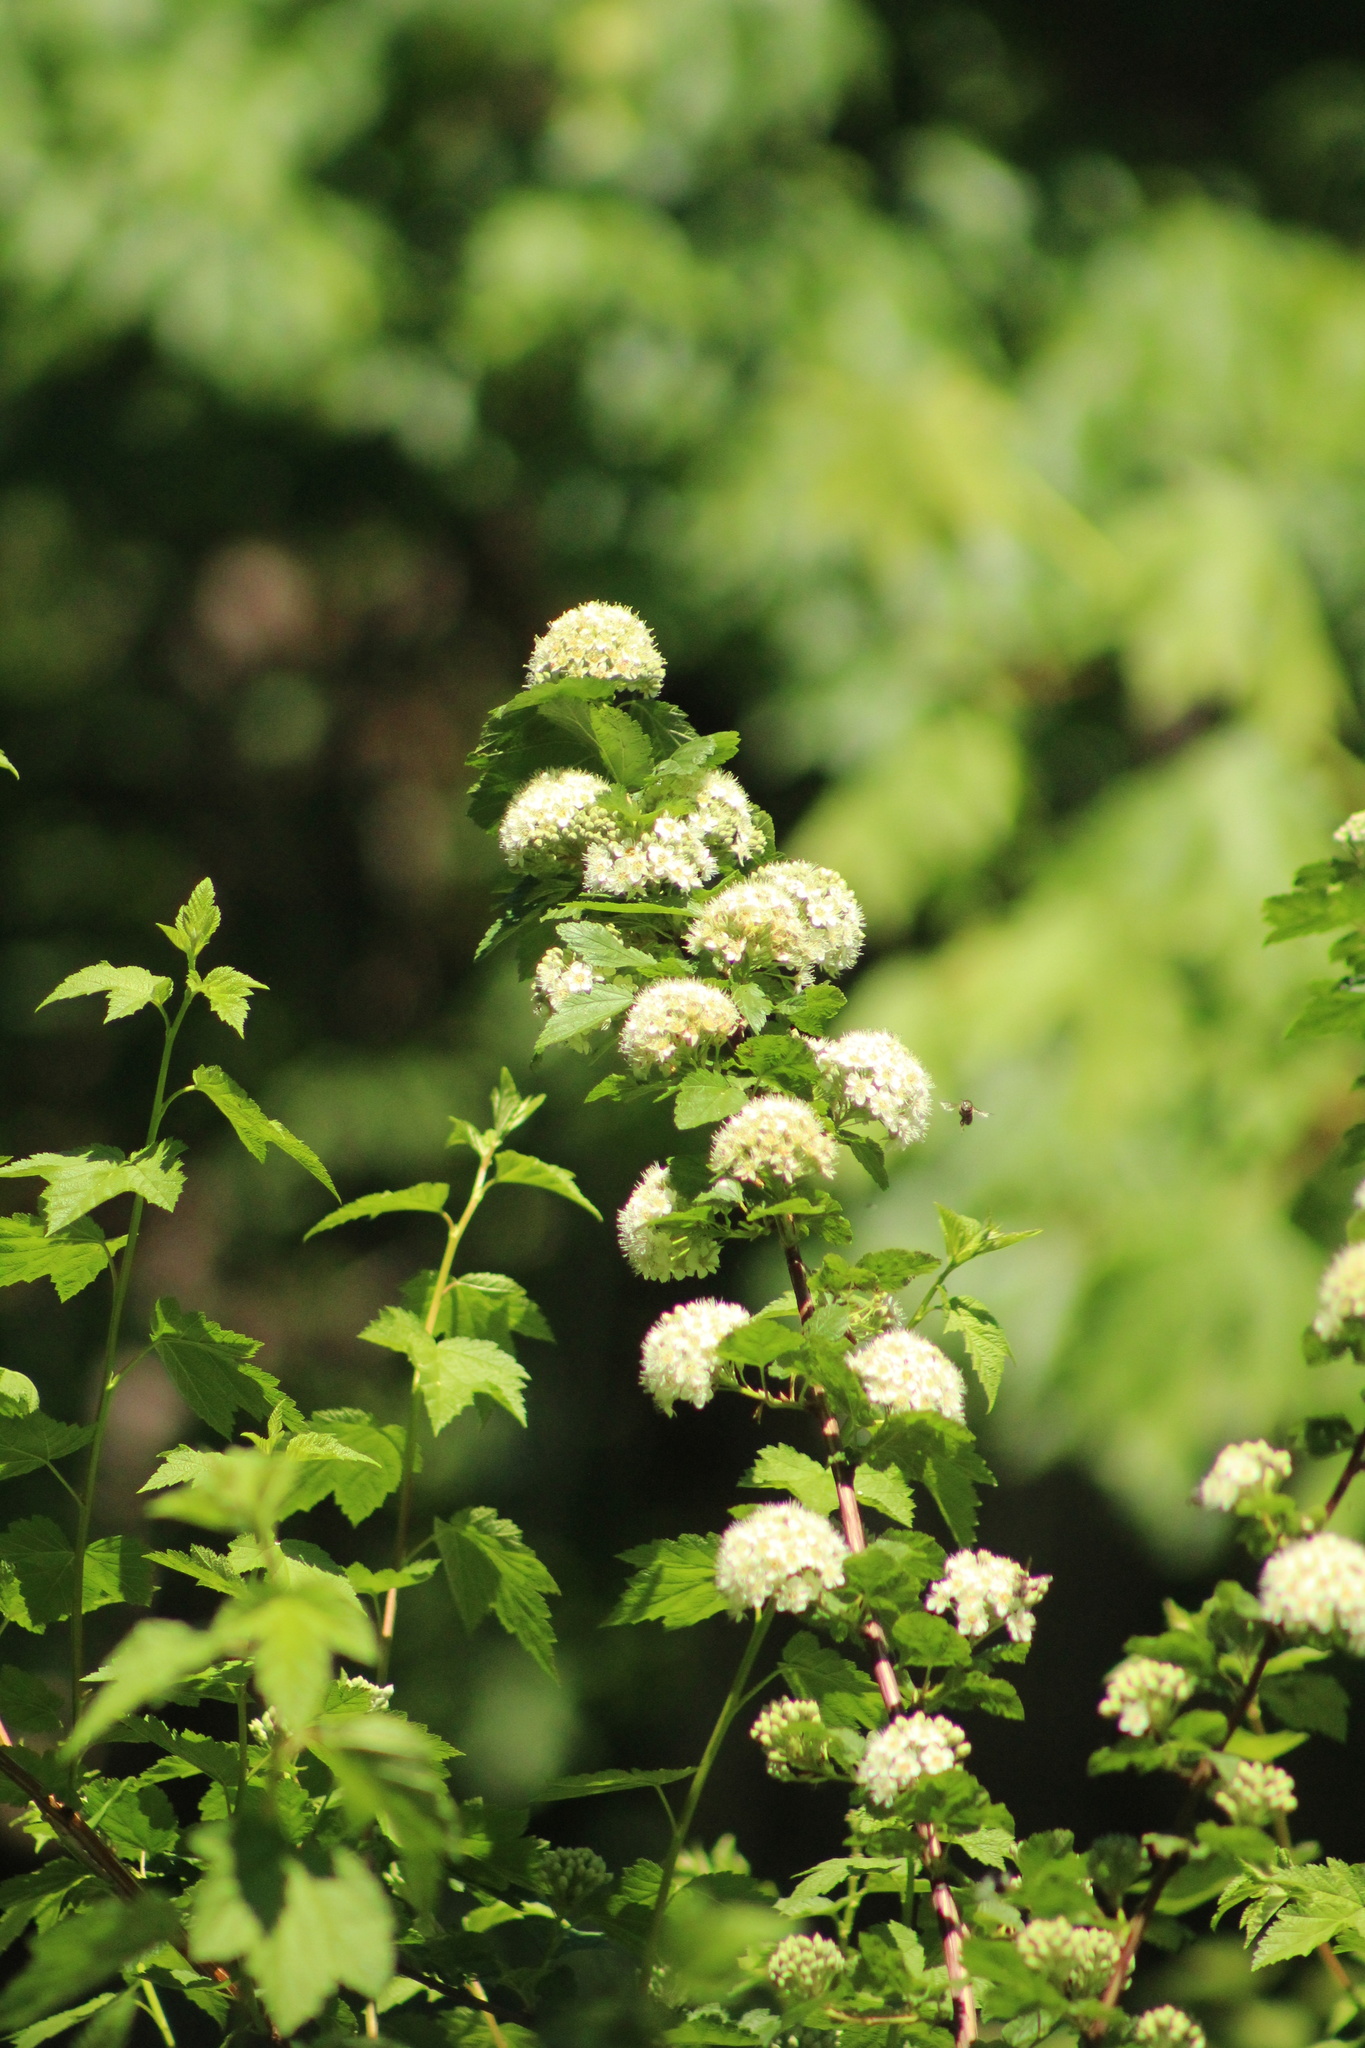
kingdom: Plantae
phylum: Tracheophyta
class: Magnoliopsida
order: Rosales
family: Rosaceae
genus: Physocarpus
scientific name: Physocarpus capitatus
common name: Pacific ninebark
